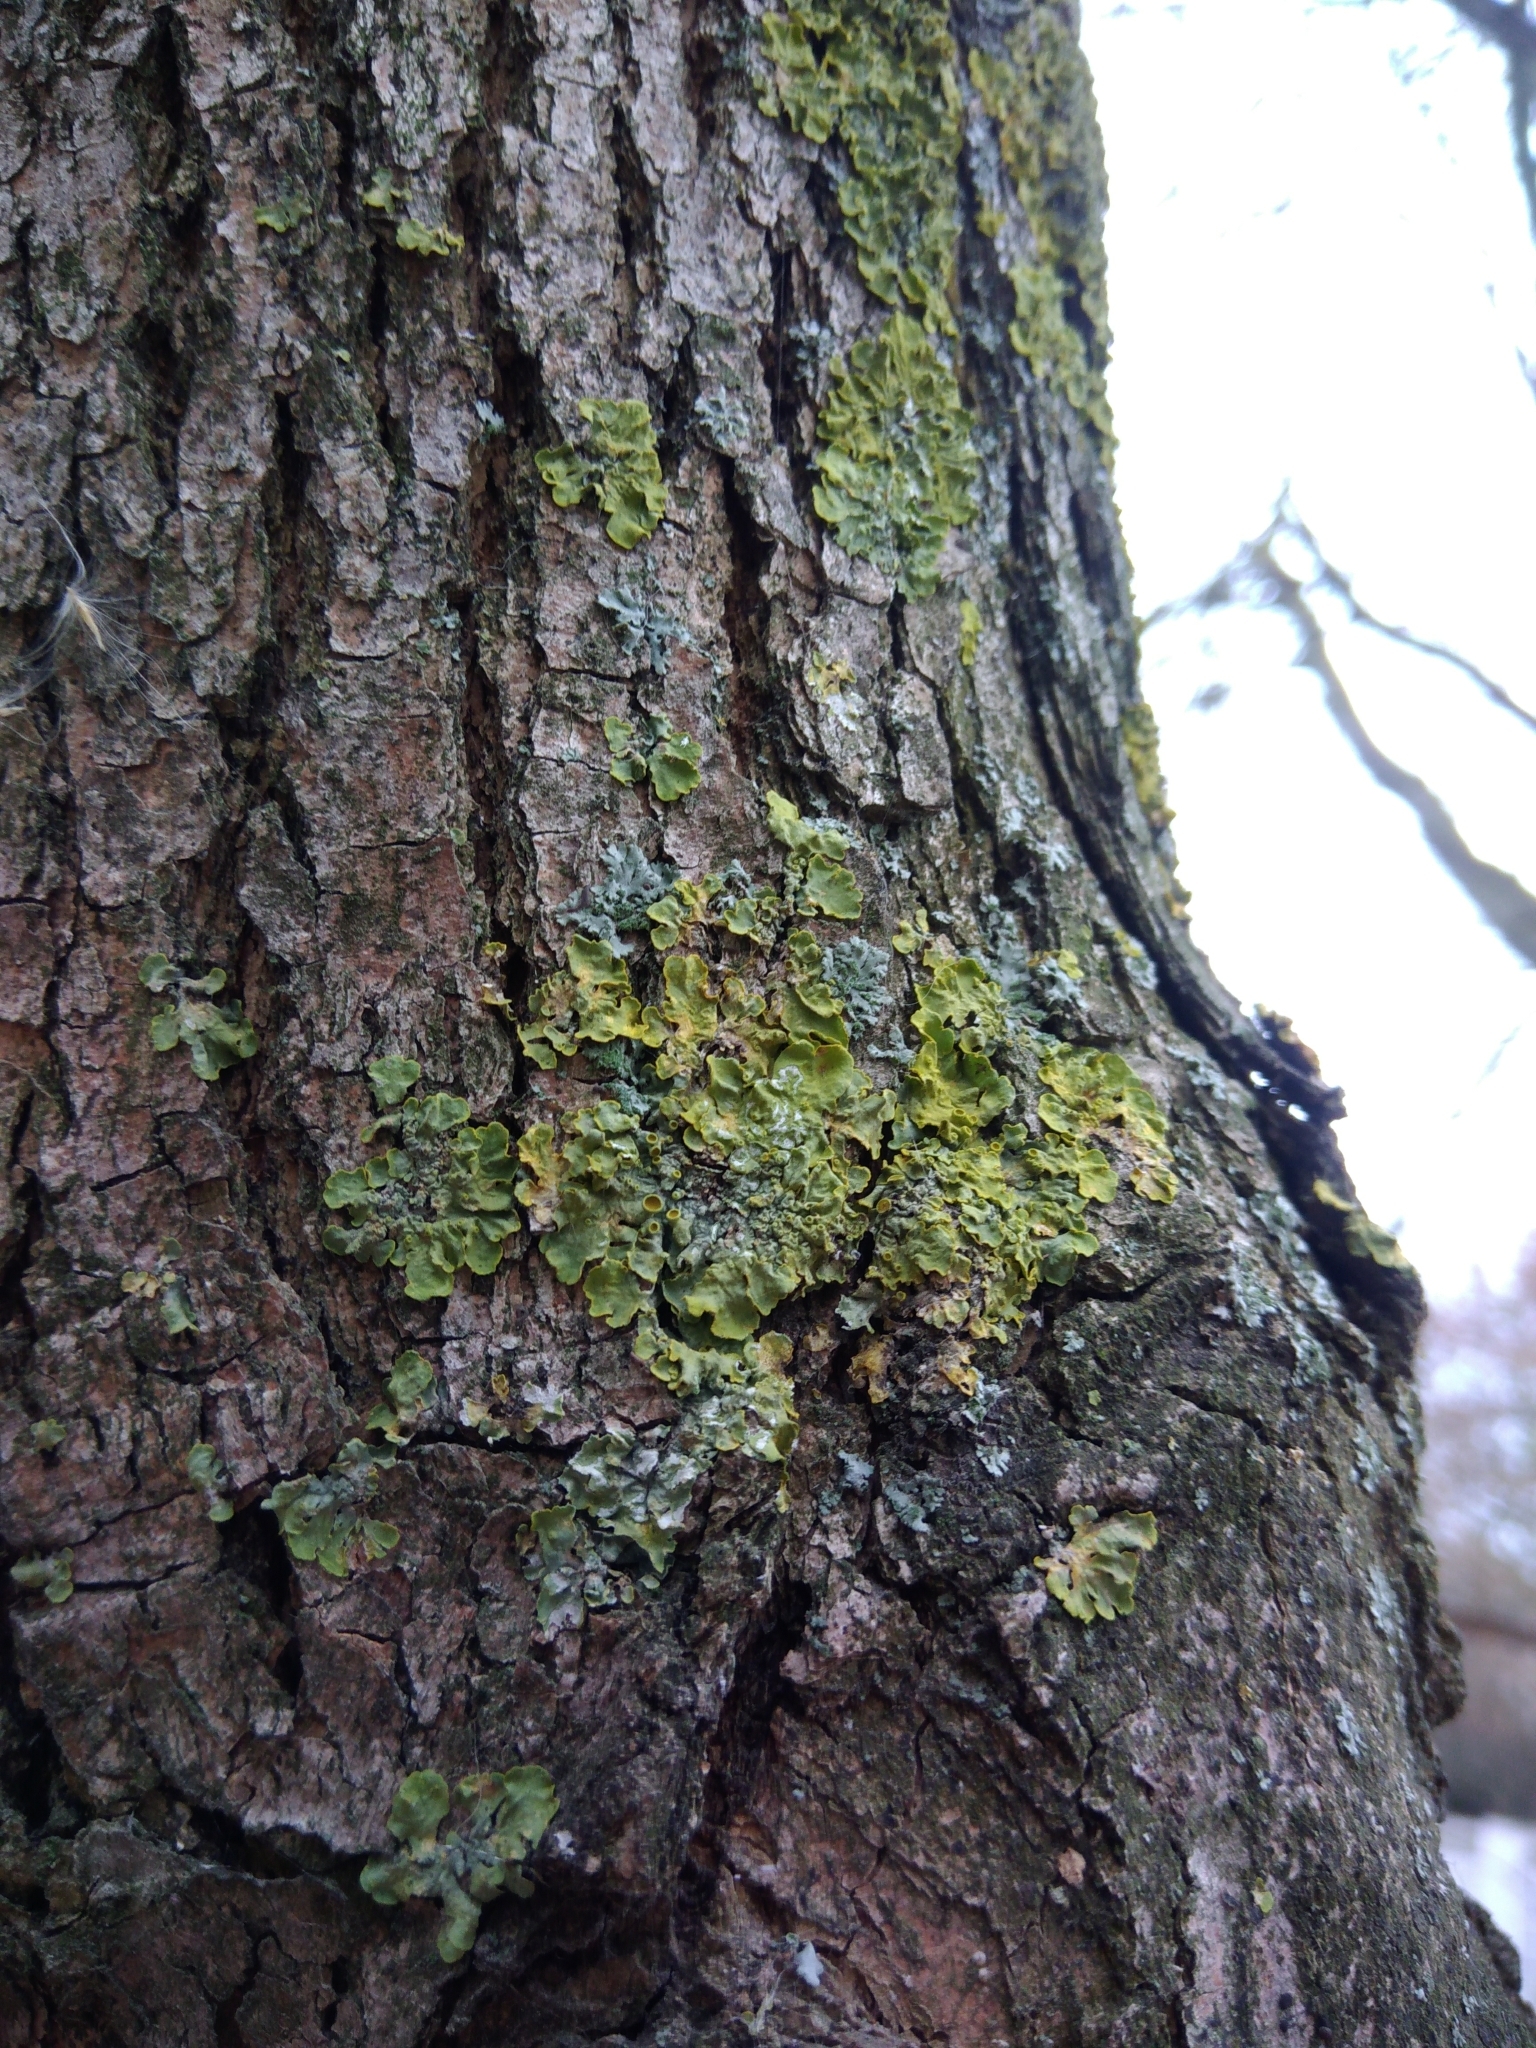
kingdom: Fungi
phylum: Ascomycota
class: Lecanoromycetes
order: Teloschistales
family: Teloschistaceae
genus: Xanthoria
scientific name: Xanthoria parietina
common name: Common orange lichen
